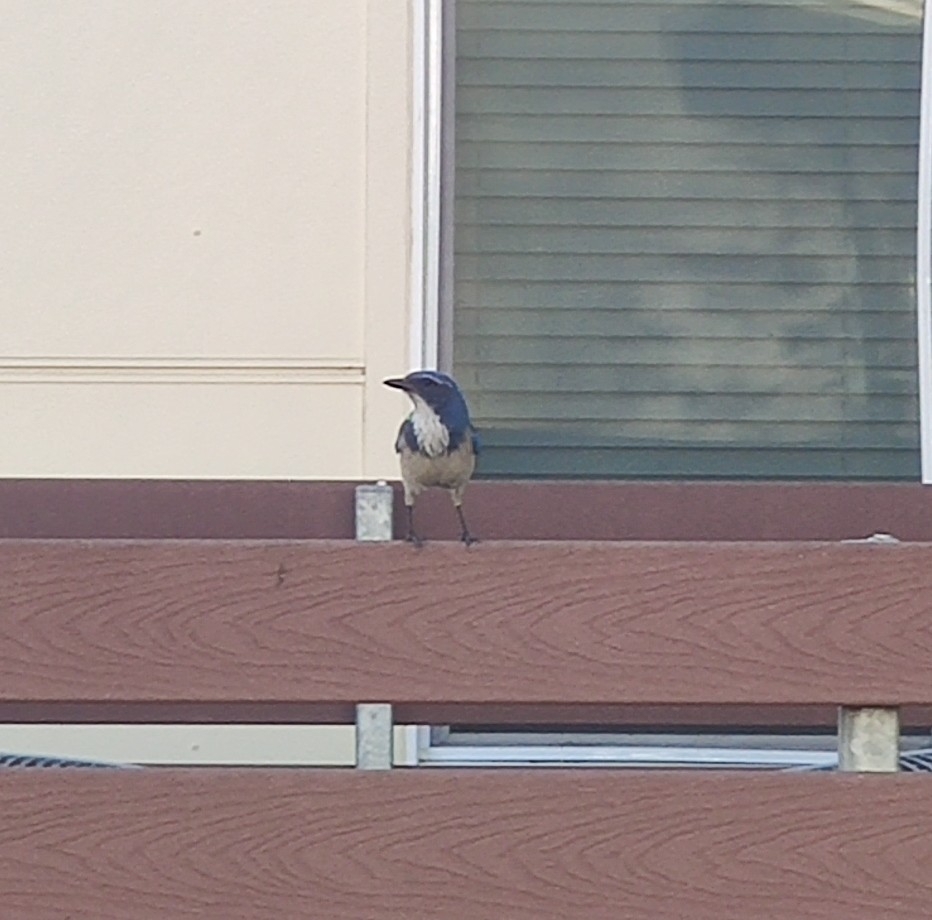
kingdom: Animalia
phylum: Chordata
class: Aves
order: Passeriformes
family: Corvidae
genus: Aphelocoma
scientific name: Aphelocoma californica
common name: California scrub-jay
